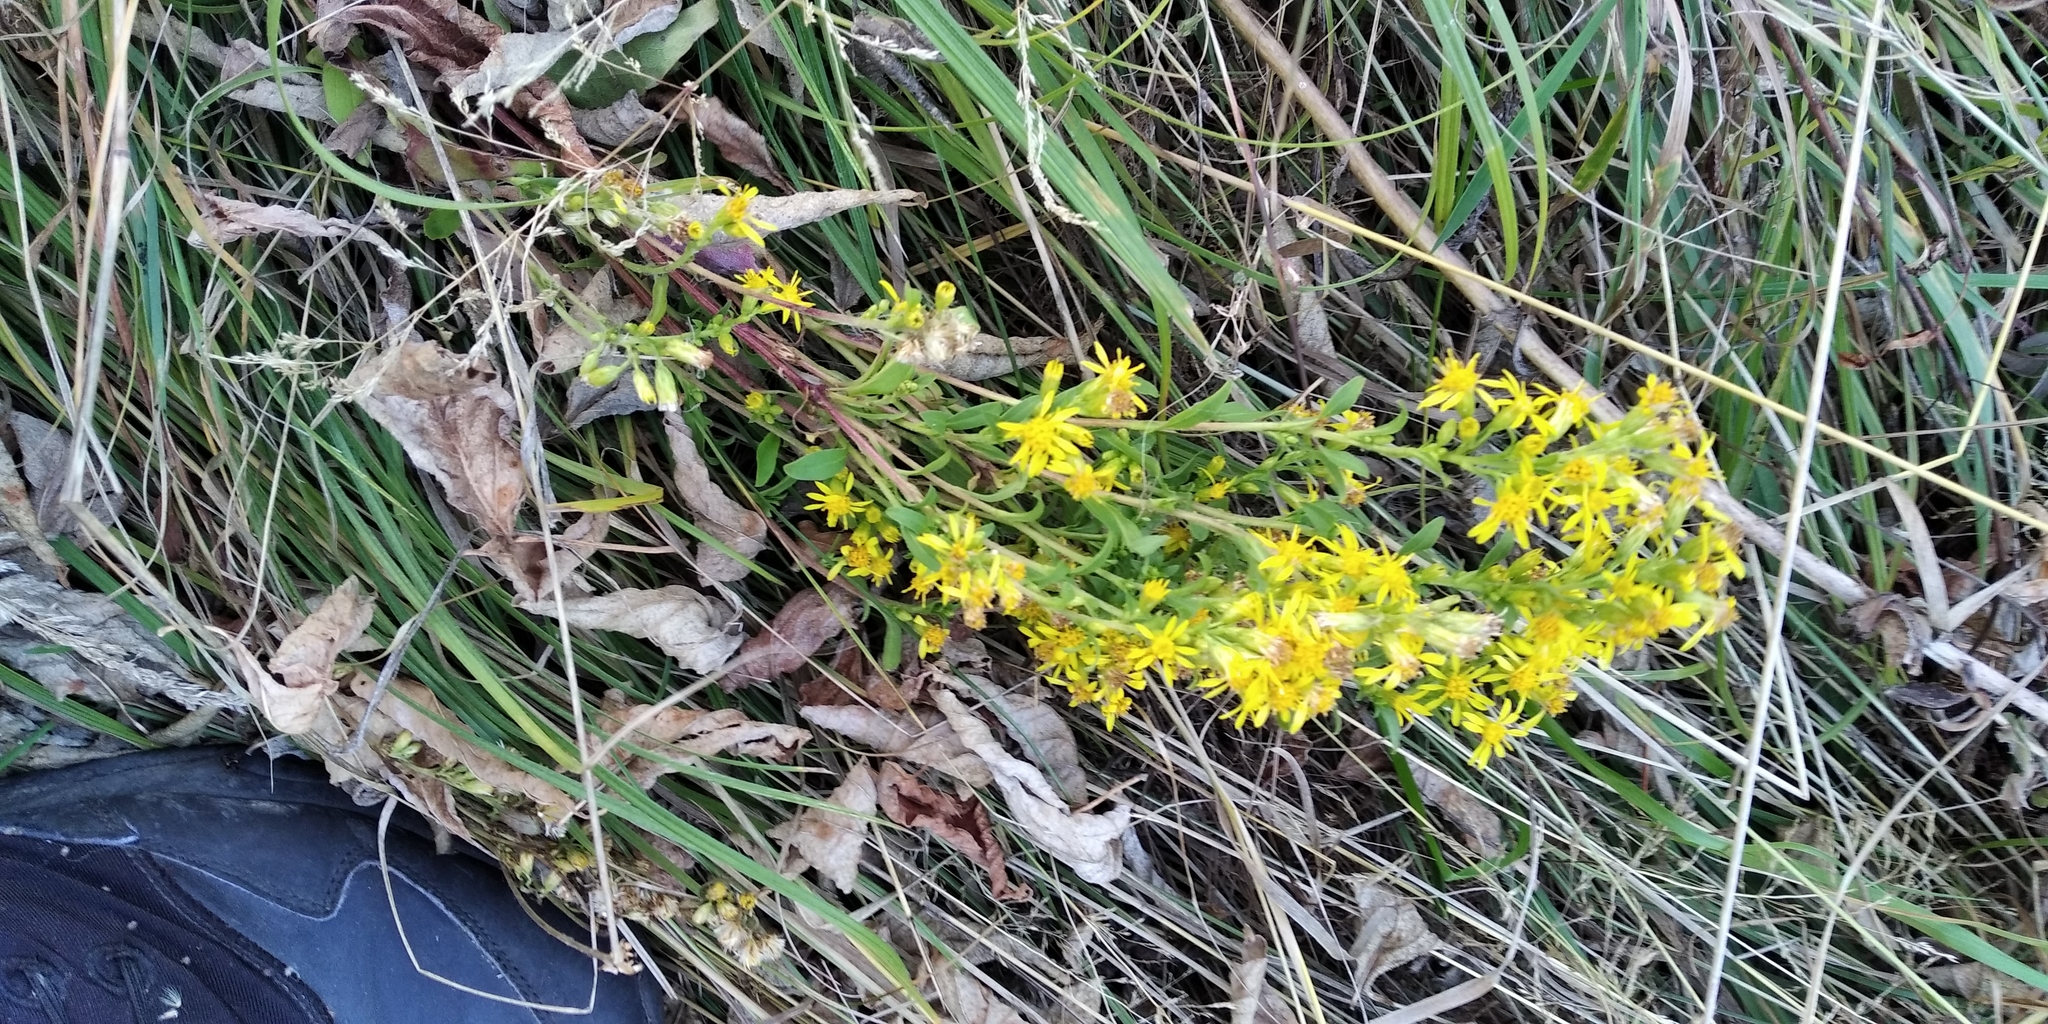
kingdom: Plantae
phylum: Tracheophyta
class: Magnoliopsida
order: Asterales
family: Asteraceae
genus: Solidago
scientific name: Solidago virgaurea
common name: Goldenrod
